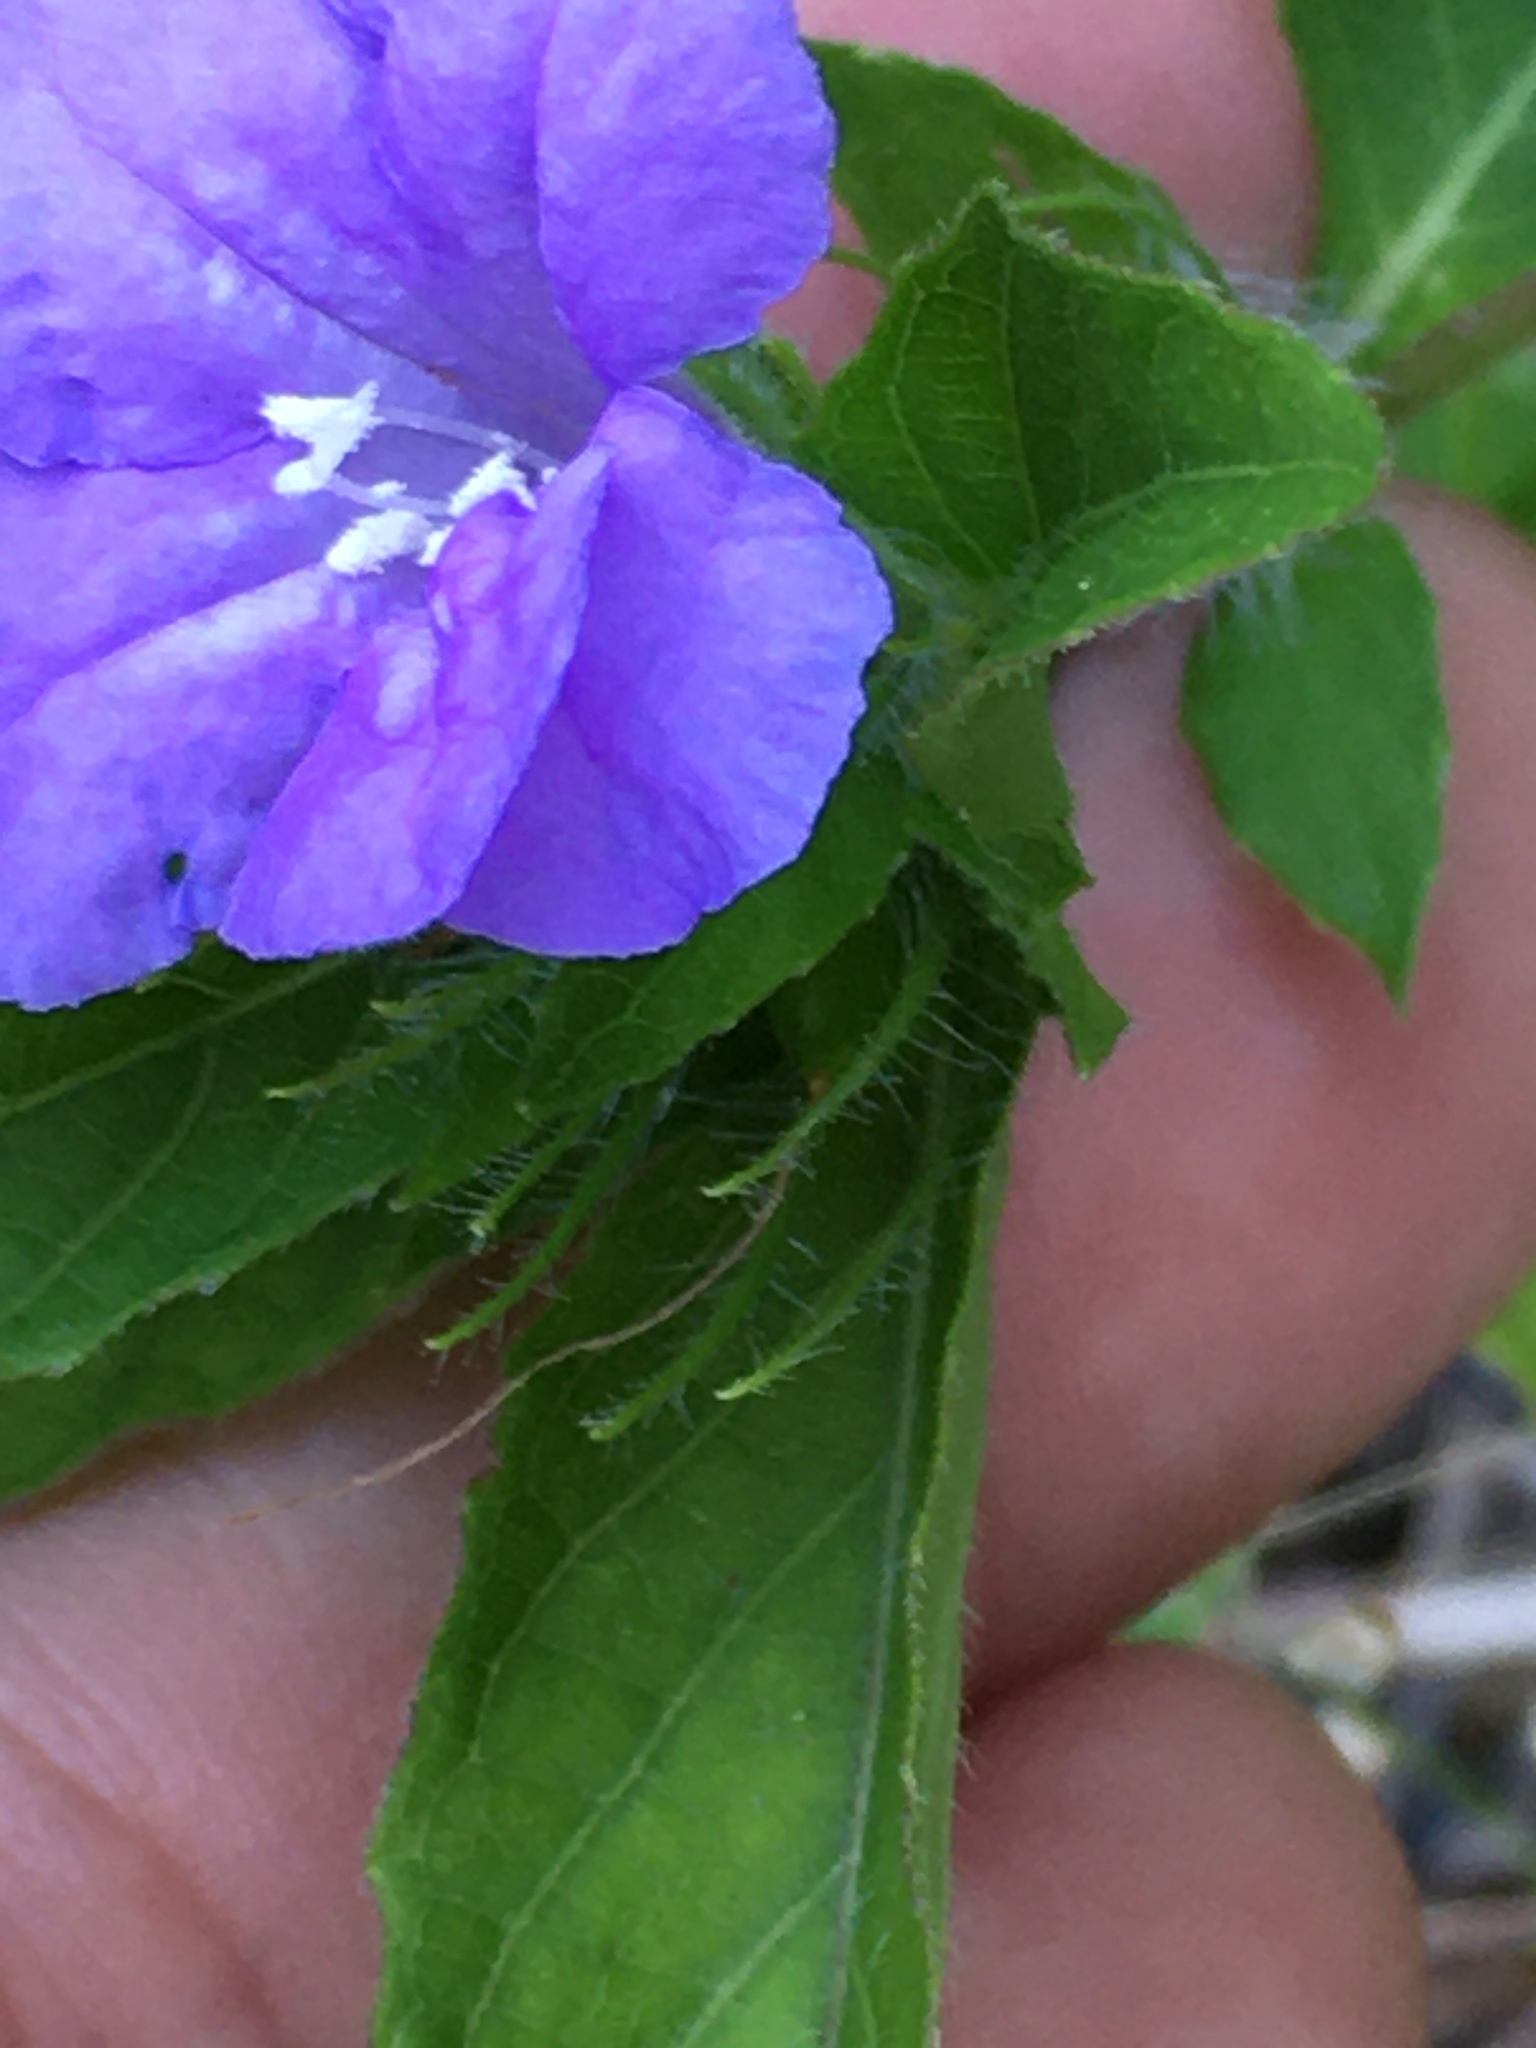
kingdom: Plantae
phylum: Tracheophyta
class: Magnoliopsida
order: Lamiales
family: Acanthaceae
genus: Ruellia
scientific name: Ruellia caroliniensis
